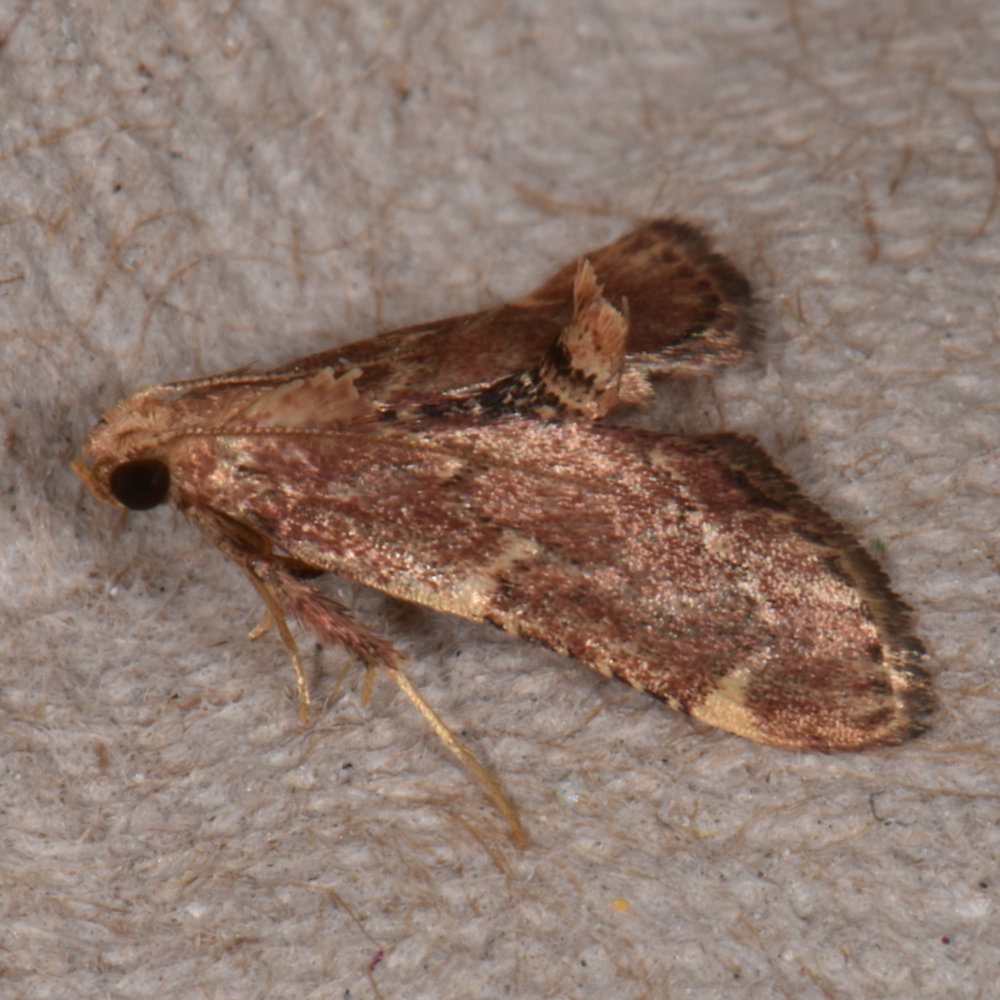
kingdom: Animalia
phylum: Arthropoda
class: Insecta
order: Lepidoptera
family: Pyralidae
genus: Hypsopygia
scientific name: Hypsopygia intermedialis
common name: Red-shawled moth
